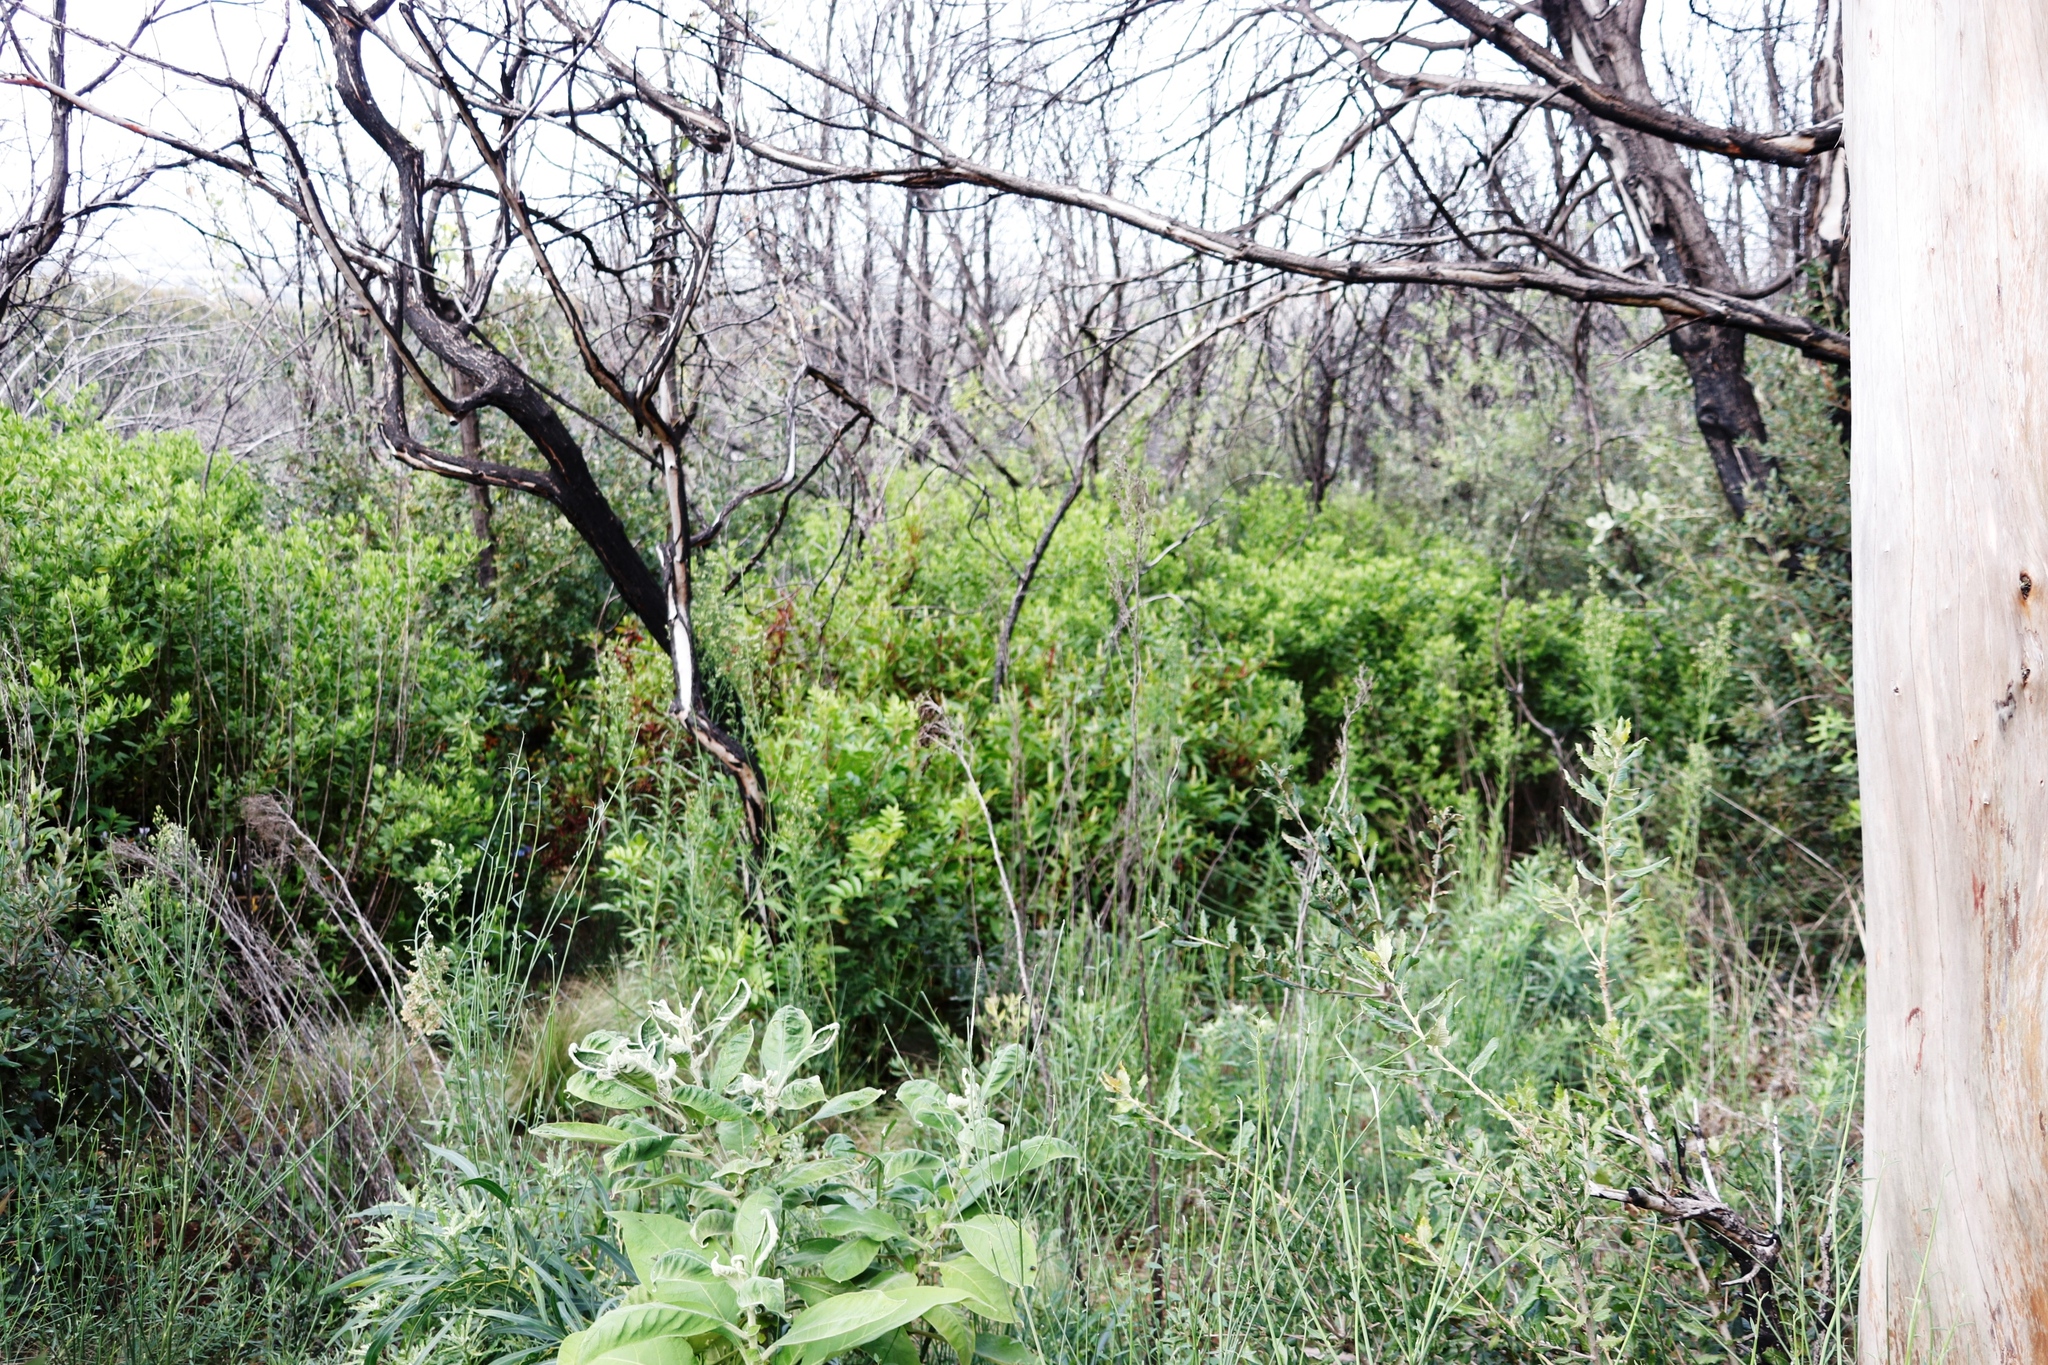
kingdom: Plantae
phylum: Tracheophyta
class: Magnoliopsida
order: Sapindales
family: Anacardiaceae
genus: Schinus
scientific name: Schinus terebinthifolia
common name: Brazilian peppertree
